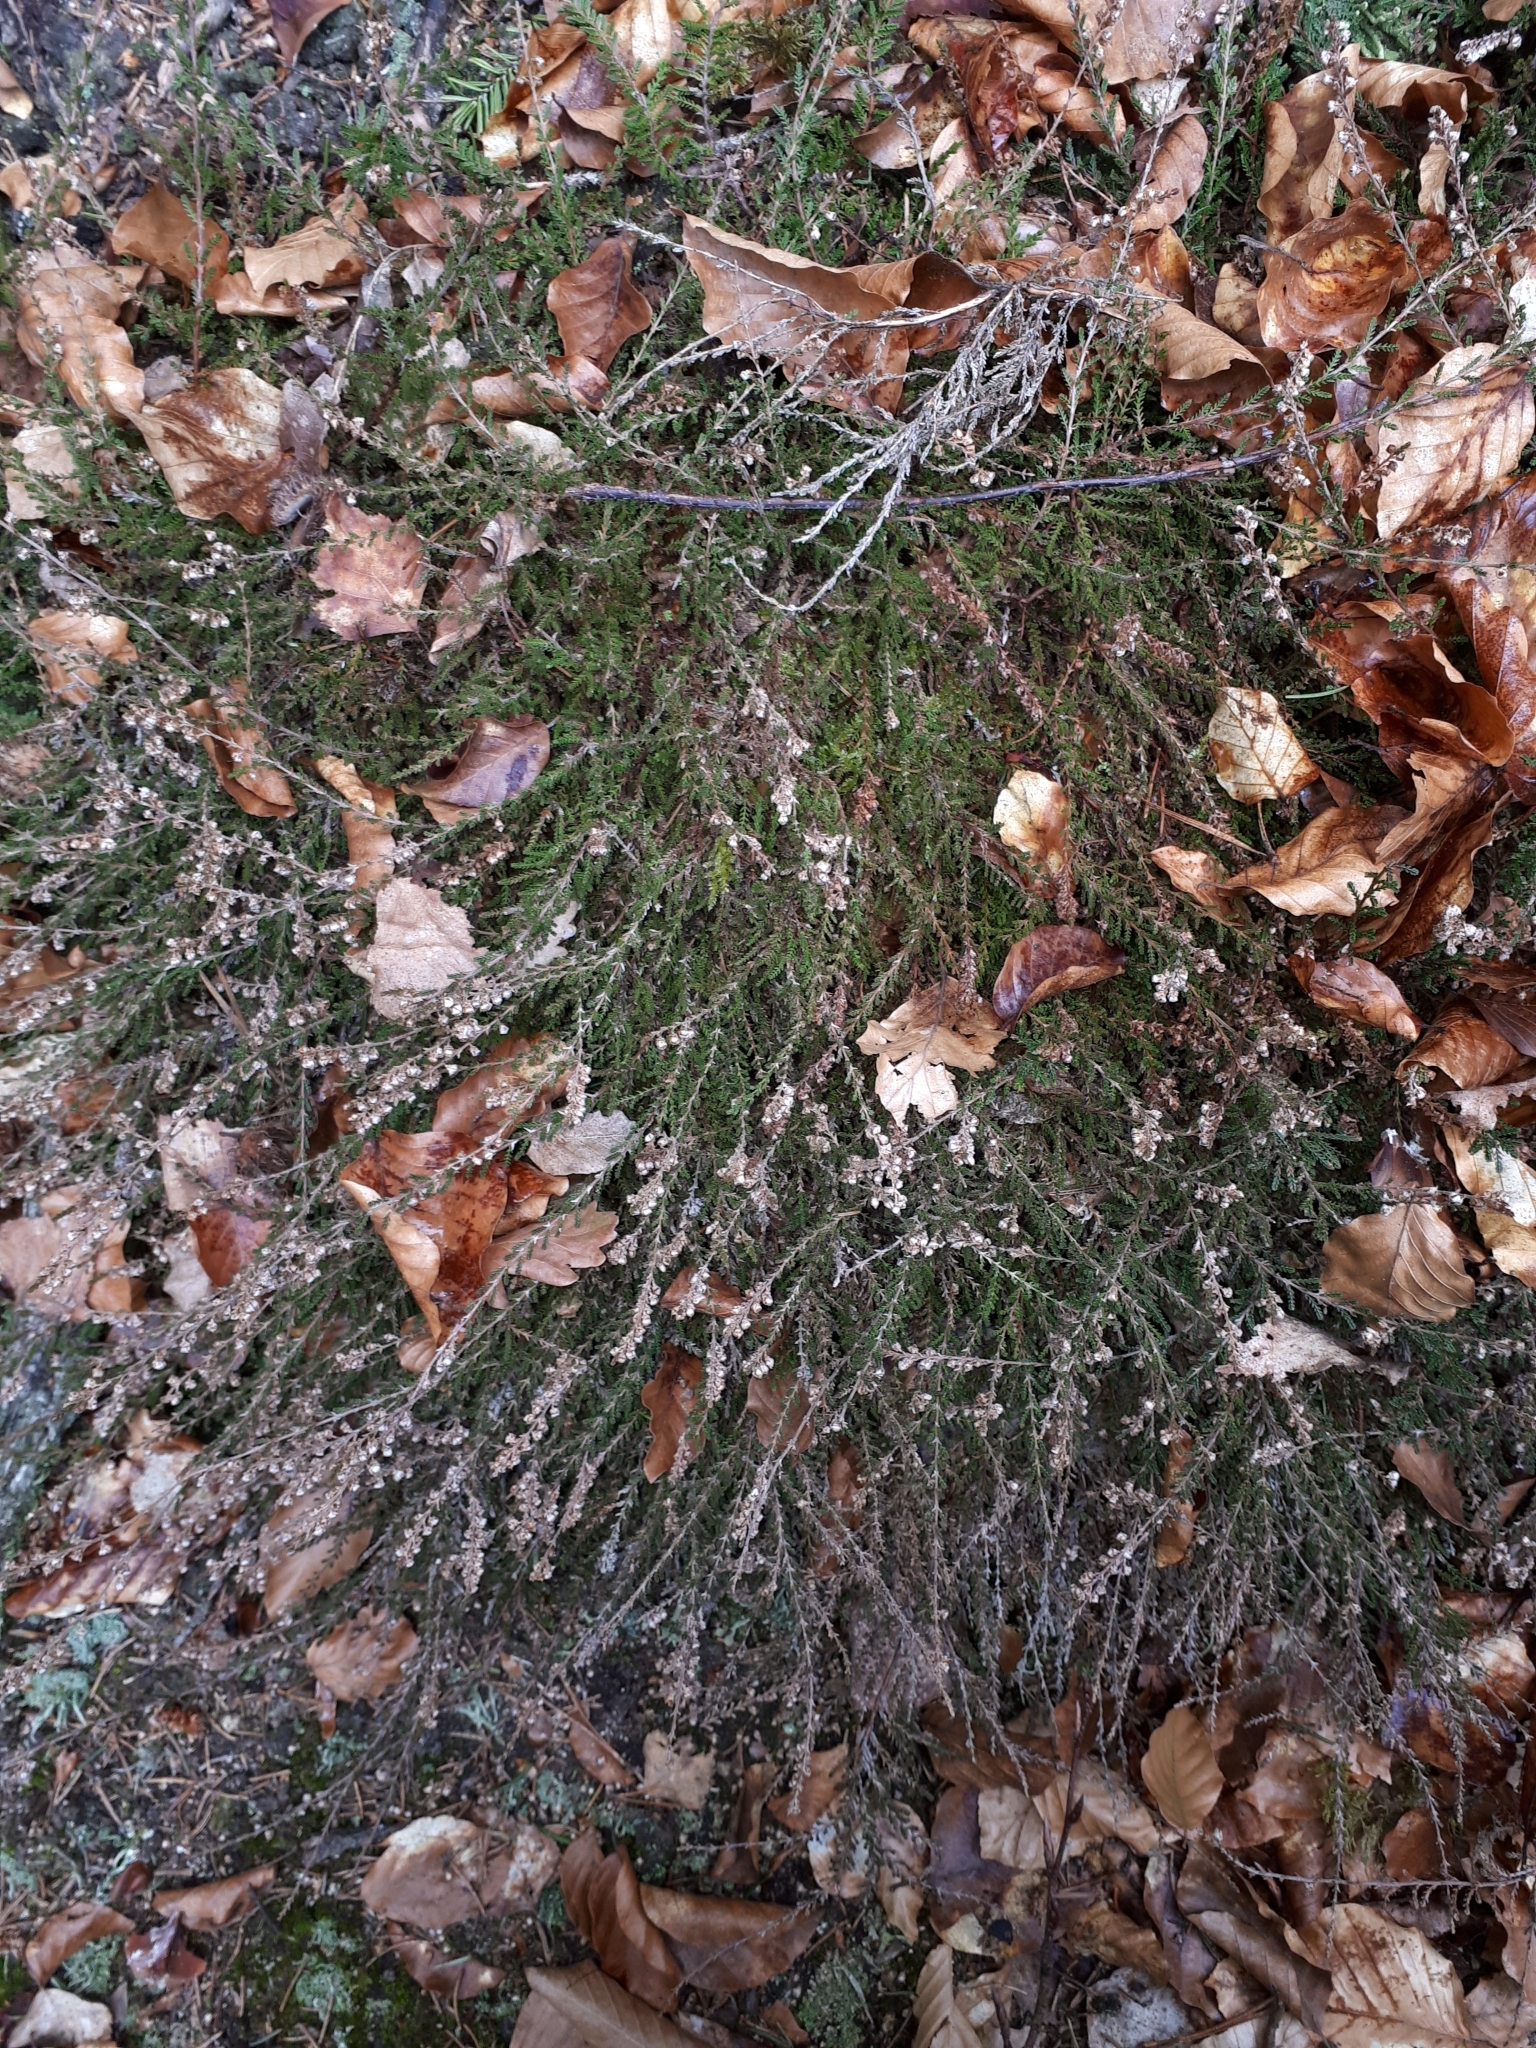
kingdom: Plantae
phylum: Tracheophyta
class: Magnoliopsida
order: Ericales
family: Ericaceae
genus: Calluna
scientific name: Calluna vulgaris
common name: Heather
